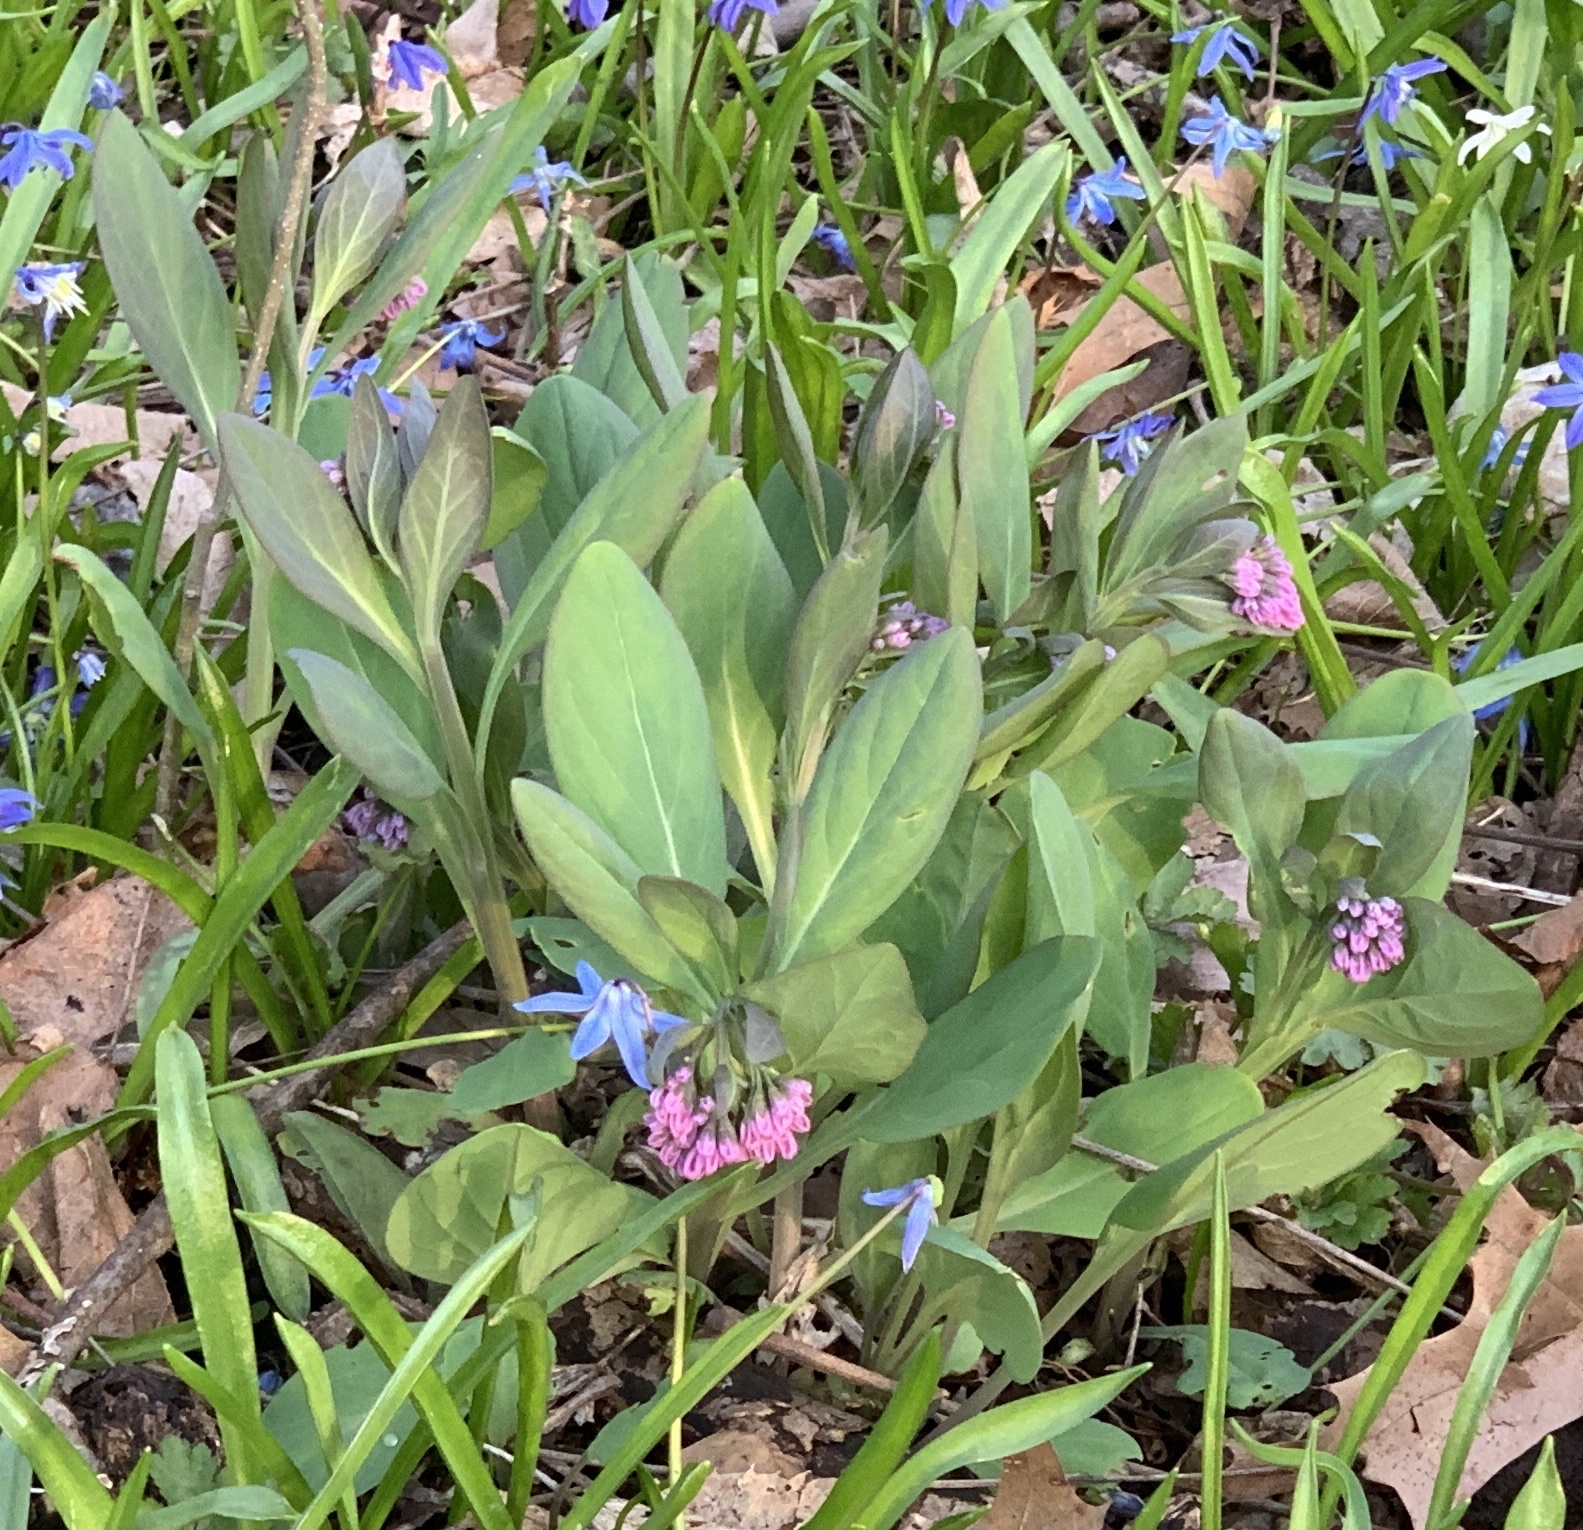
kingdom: Plantae
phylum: Tracheophyta
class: Magnoliopsida
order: Boraginales
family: Boraginaceae
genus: Mertensia
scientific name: Mertensia virginica
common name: Virginia bluebells
